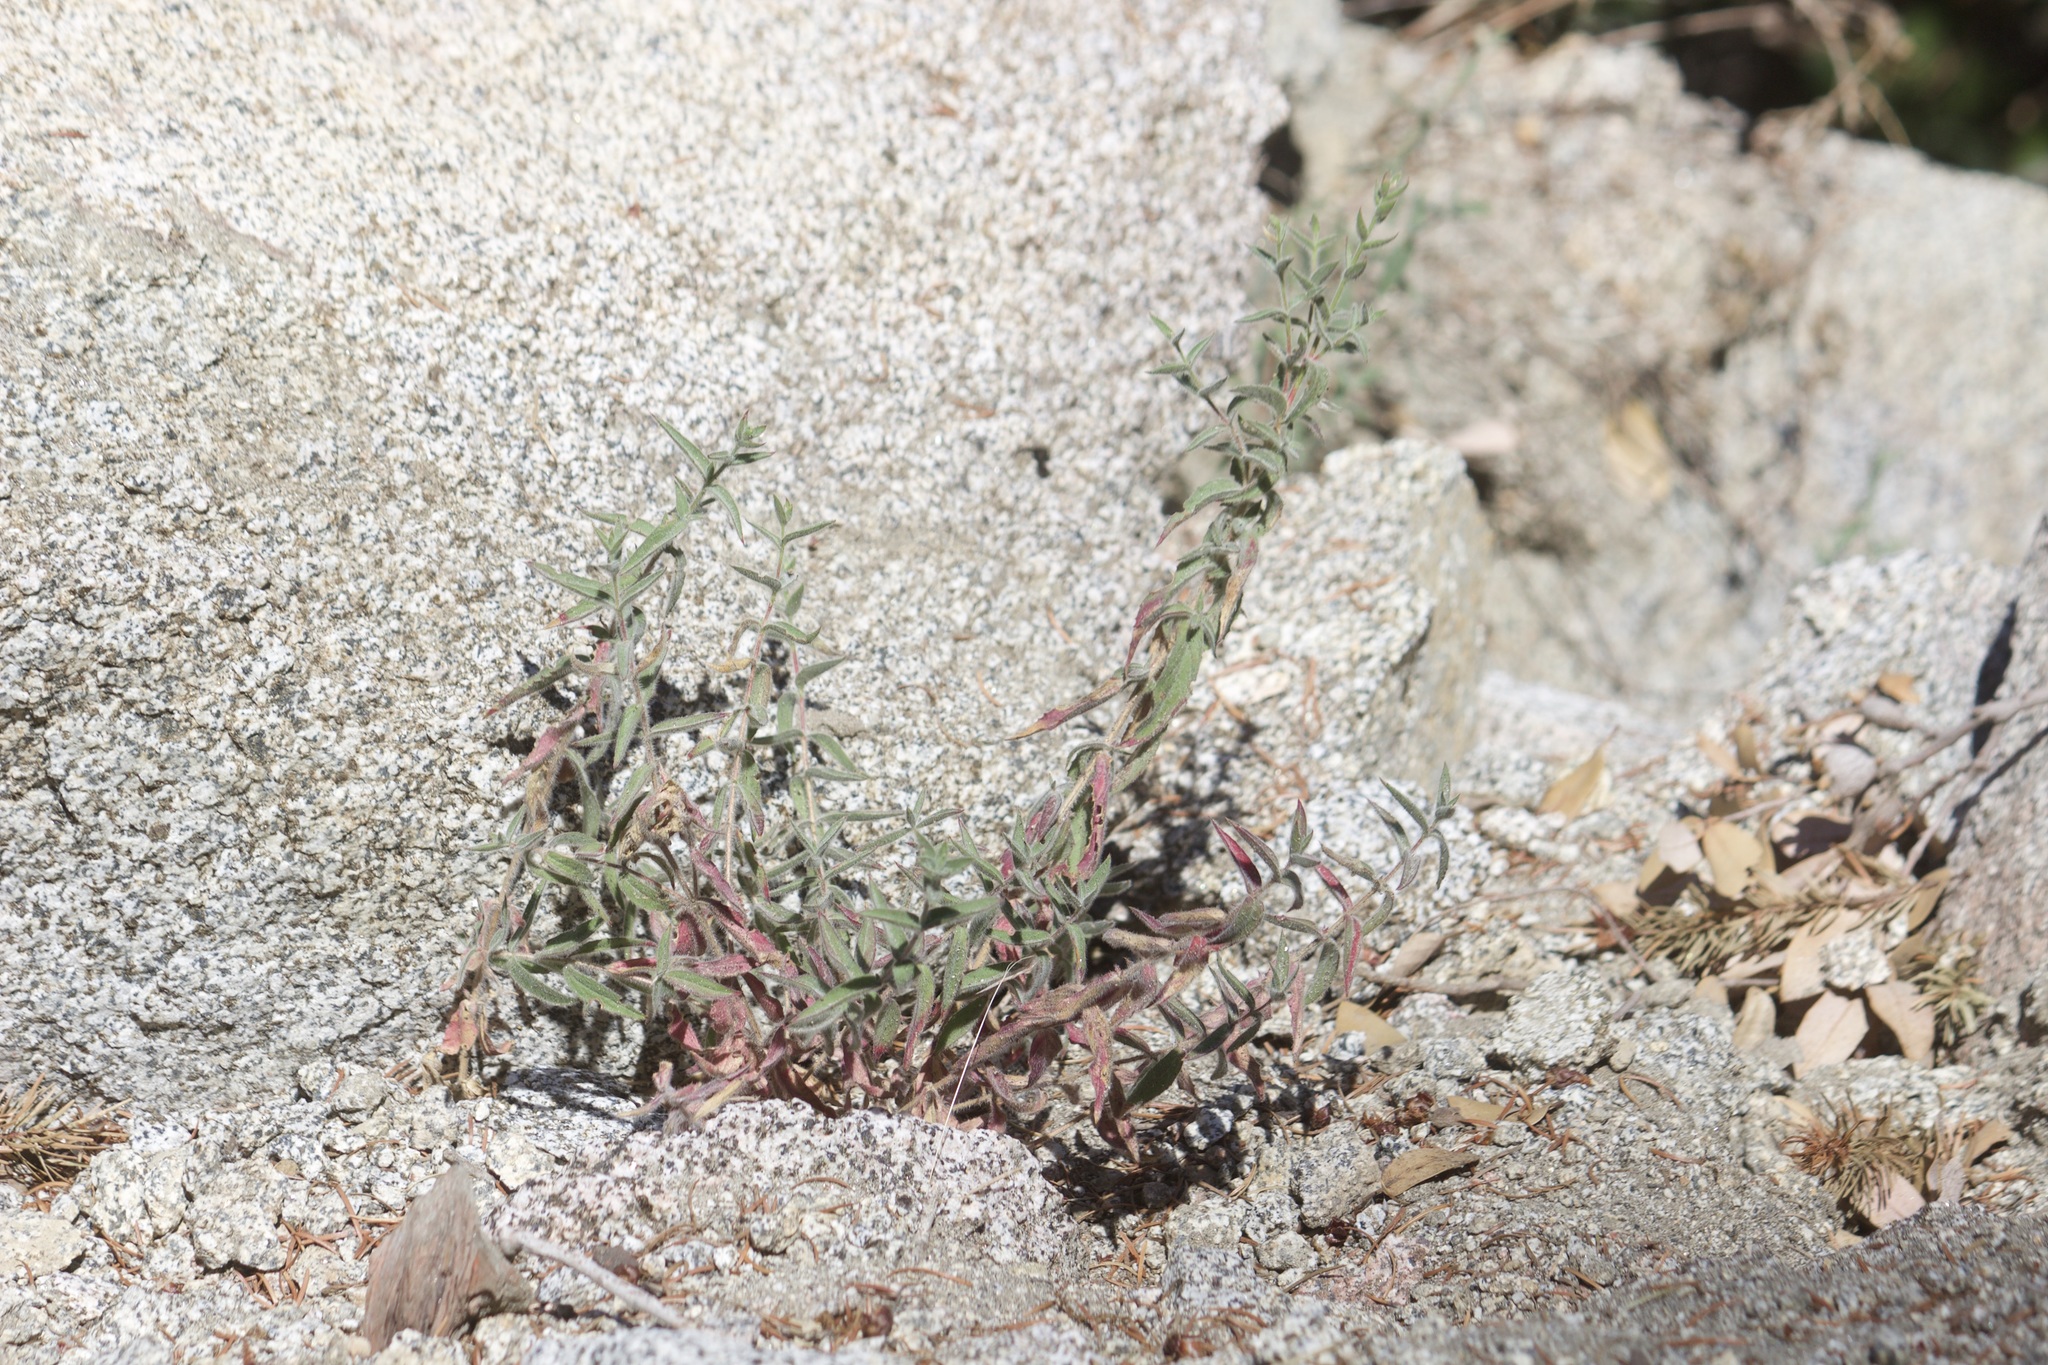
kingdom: Plantae
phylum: Tracheophyta
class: Magnoliopsida
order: Myrtales
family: Onagraceae
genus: Epilobium
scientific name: Epilobium canum
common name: California-fuchsia
